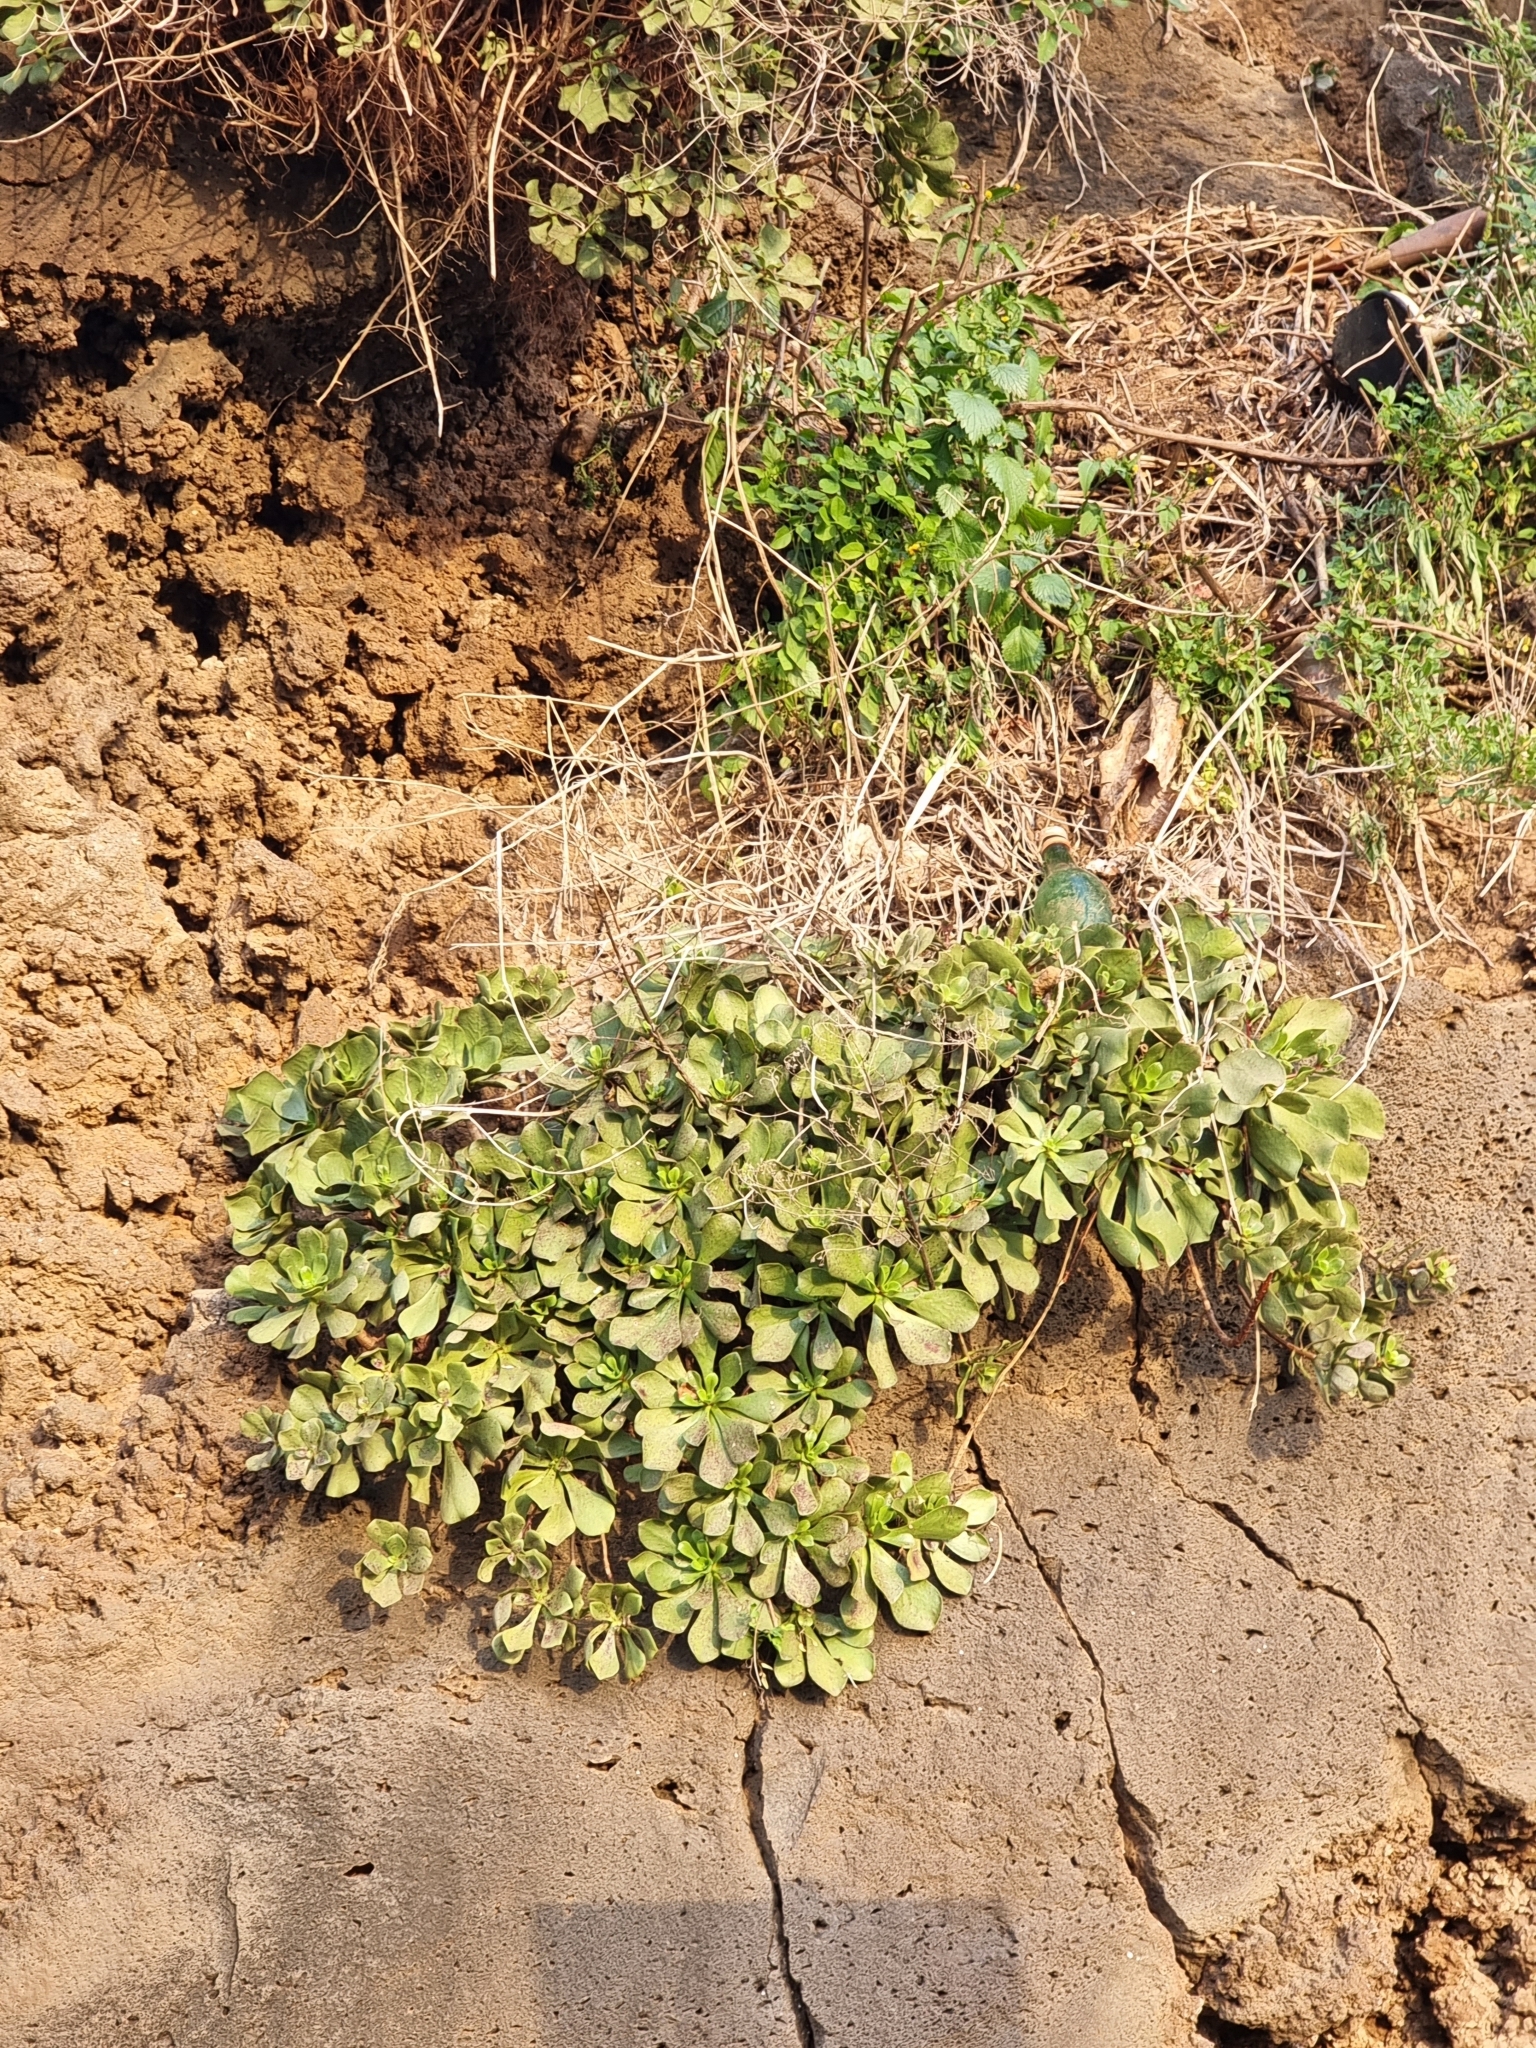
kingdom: Plantae
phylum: Tracheophyta
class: Magnoliopsida
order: Saxifragales
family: Crassulaceae
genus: Aeonium
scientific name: Aeonium glutinosum
